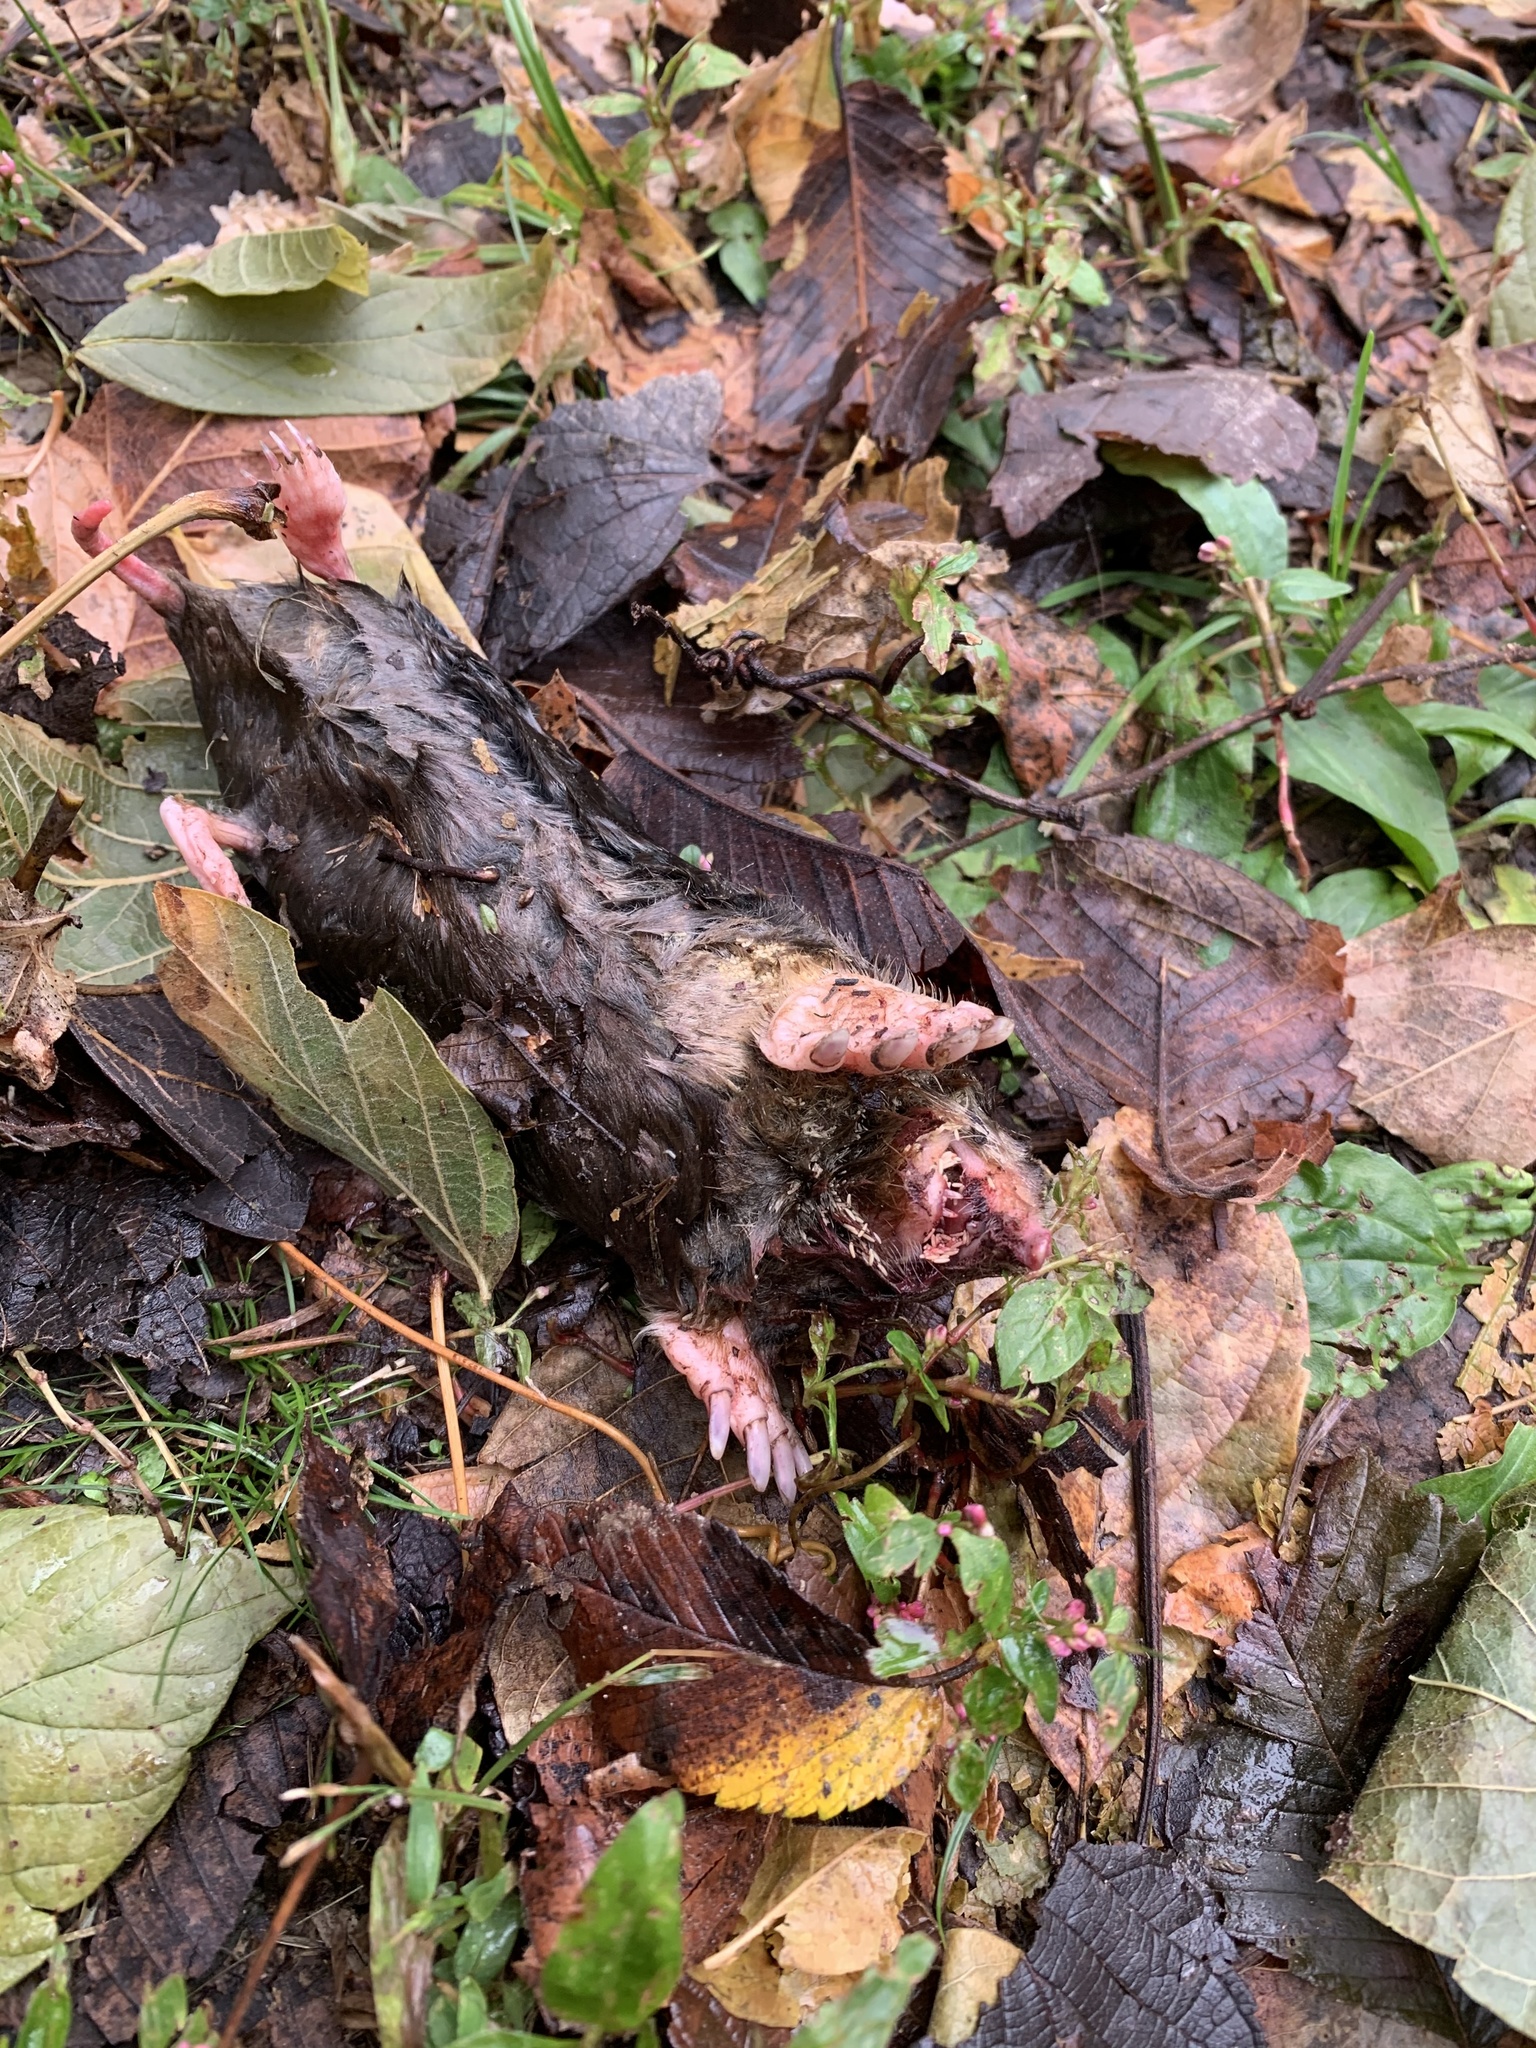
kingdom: Animalia
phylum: Chordata
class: Mammalia
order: Soricomorpha
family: Talpidae
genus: Scalopus
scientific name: Scalopus aquaticus
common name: Eastern mole
